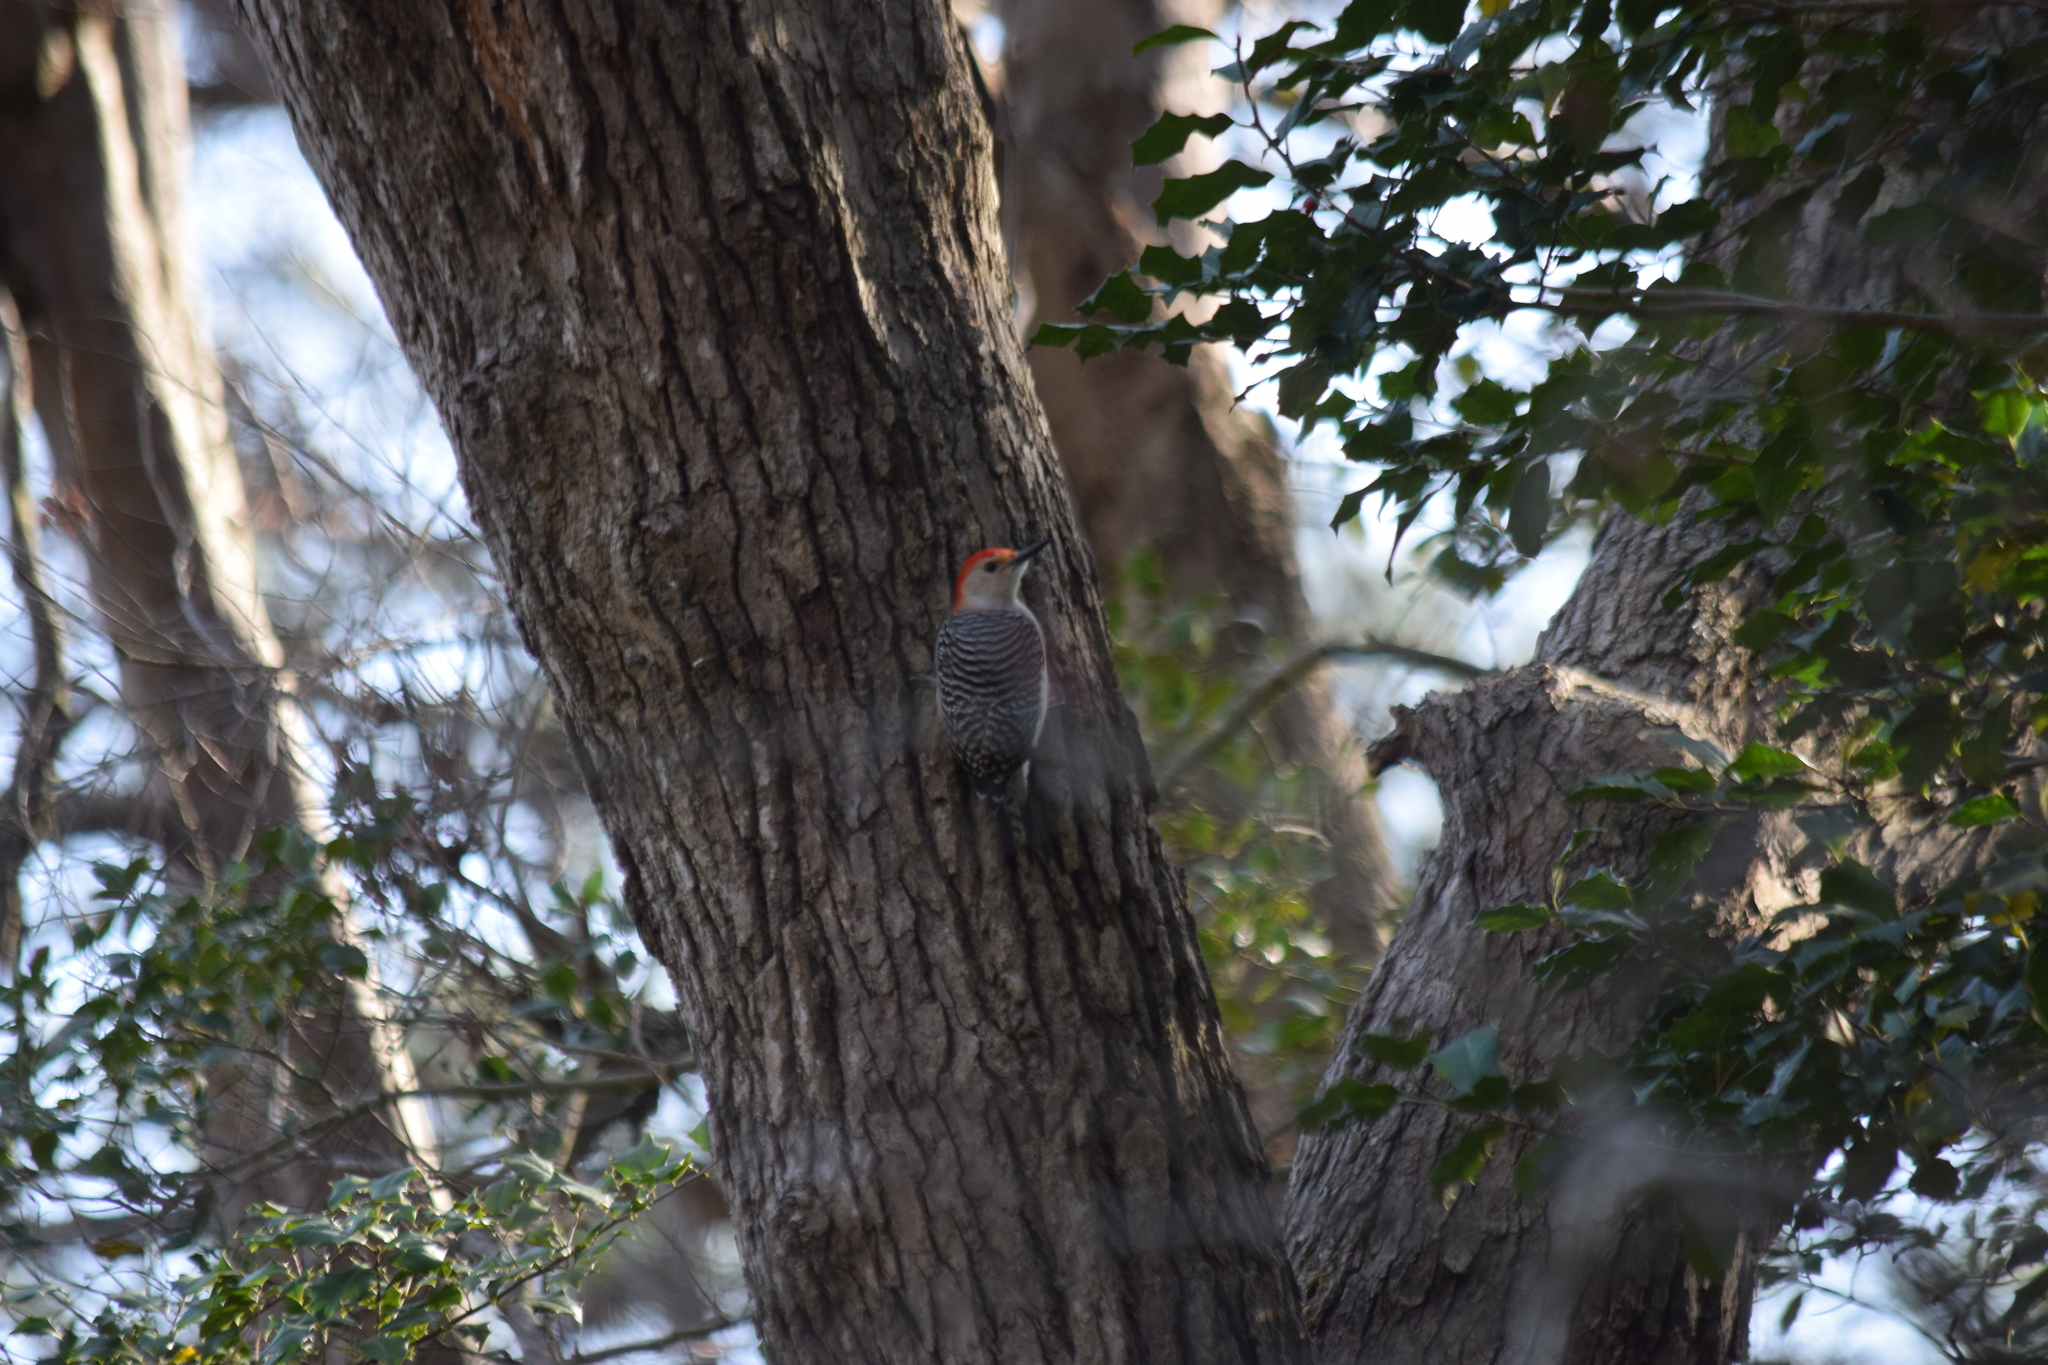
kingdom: Animalia
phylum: Chordata
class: Aves
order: Piciformes
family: Picidae
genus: Melanerpes
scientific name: Melanerpes carolinus
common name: Red-bellied woodpecker
